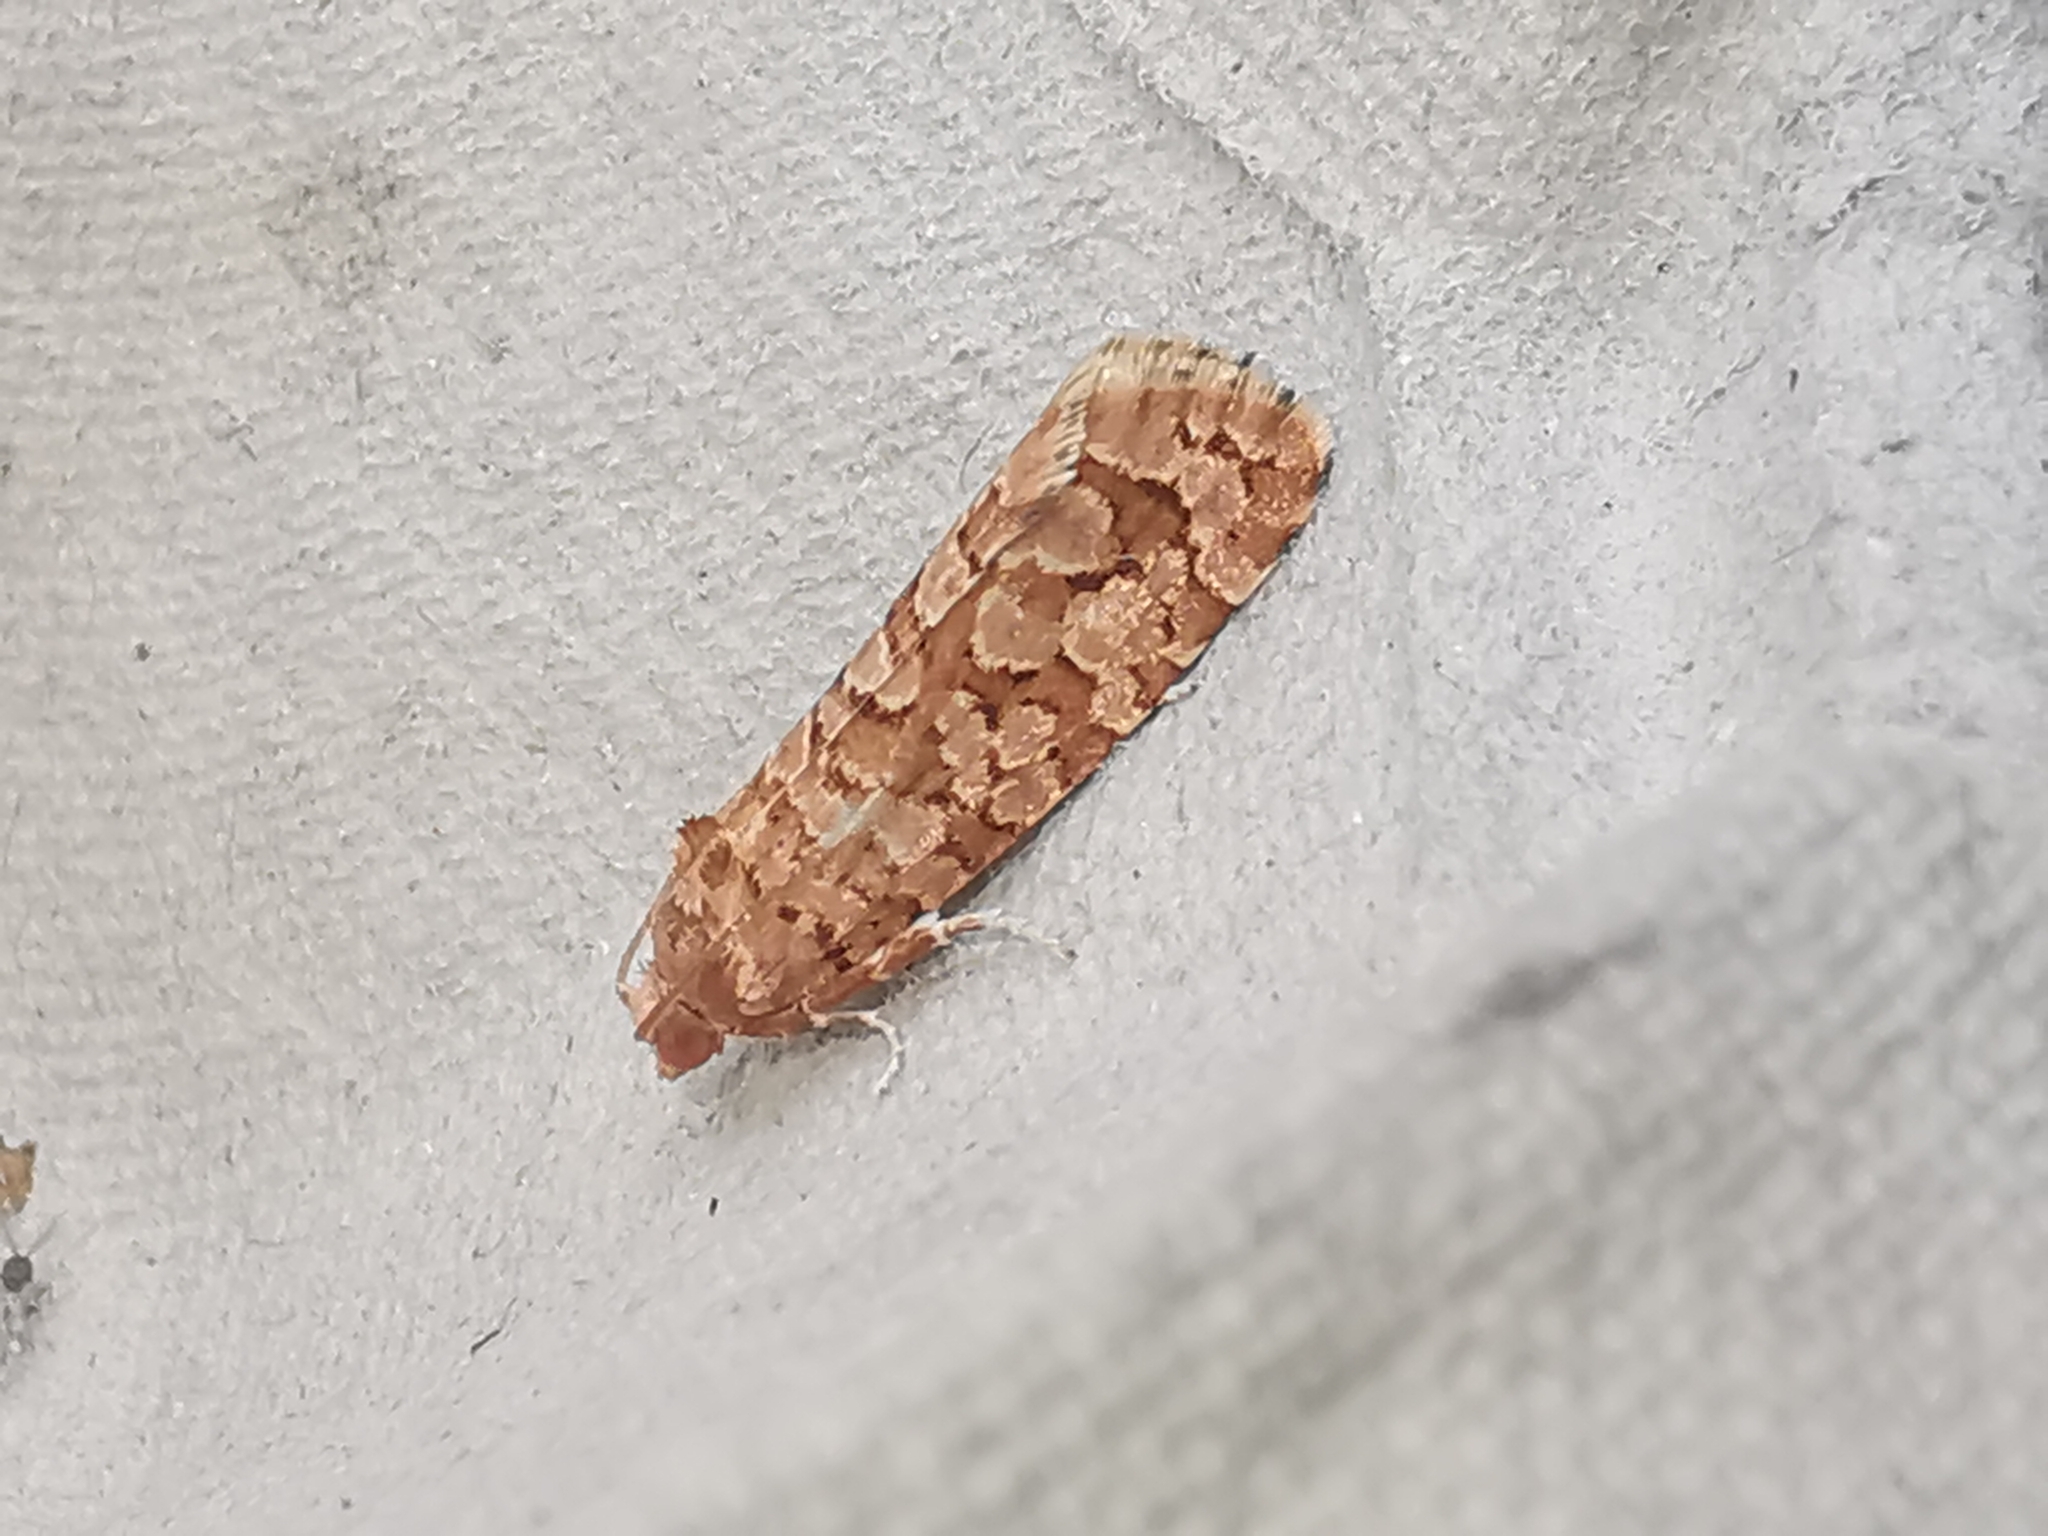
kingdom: Animalia
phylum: Arthropoda
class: Insecta
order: Lepidoptera
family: Tortricidae
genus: Lozotaeniodes
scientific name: Lozotaeniodes formosana
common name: Orange pine twist
